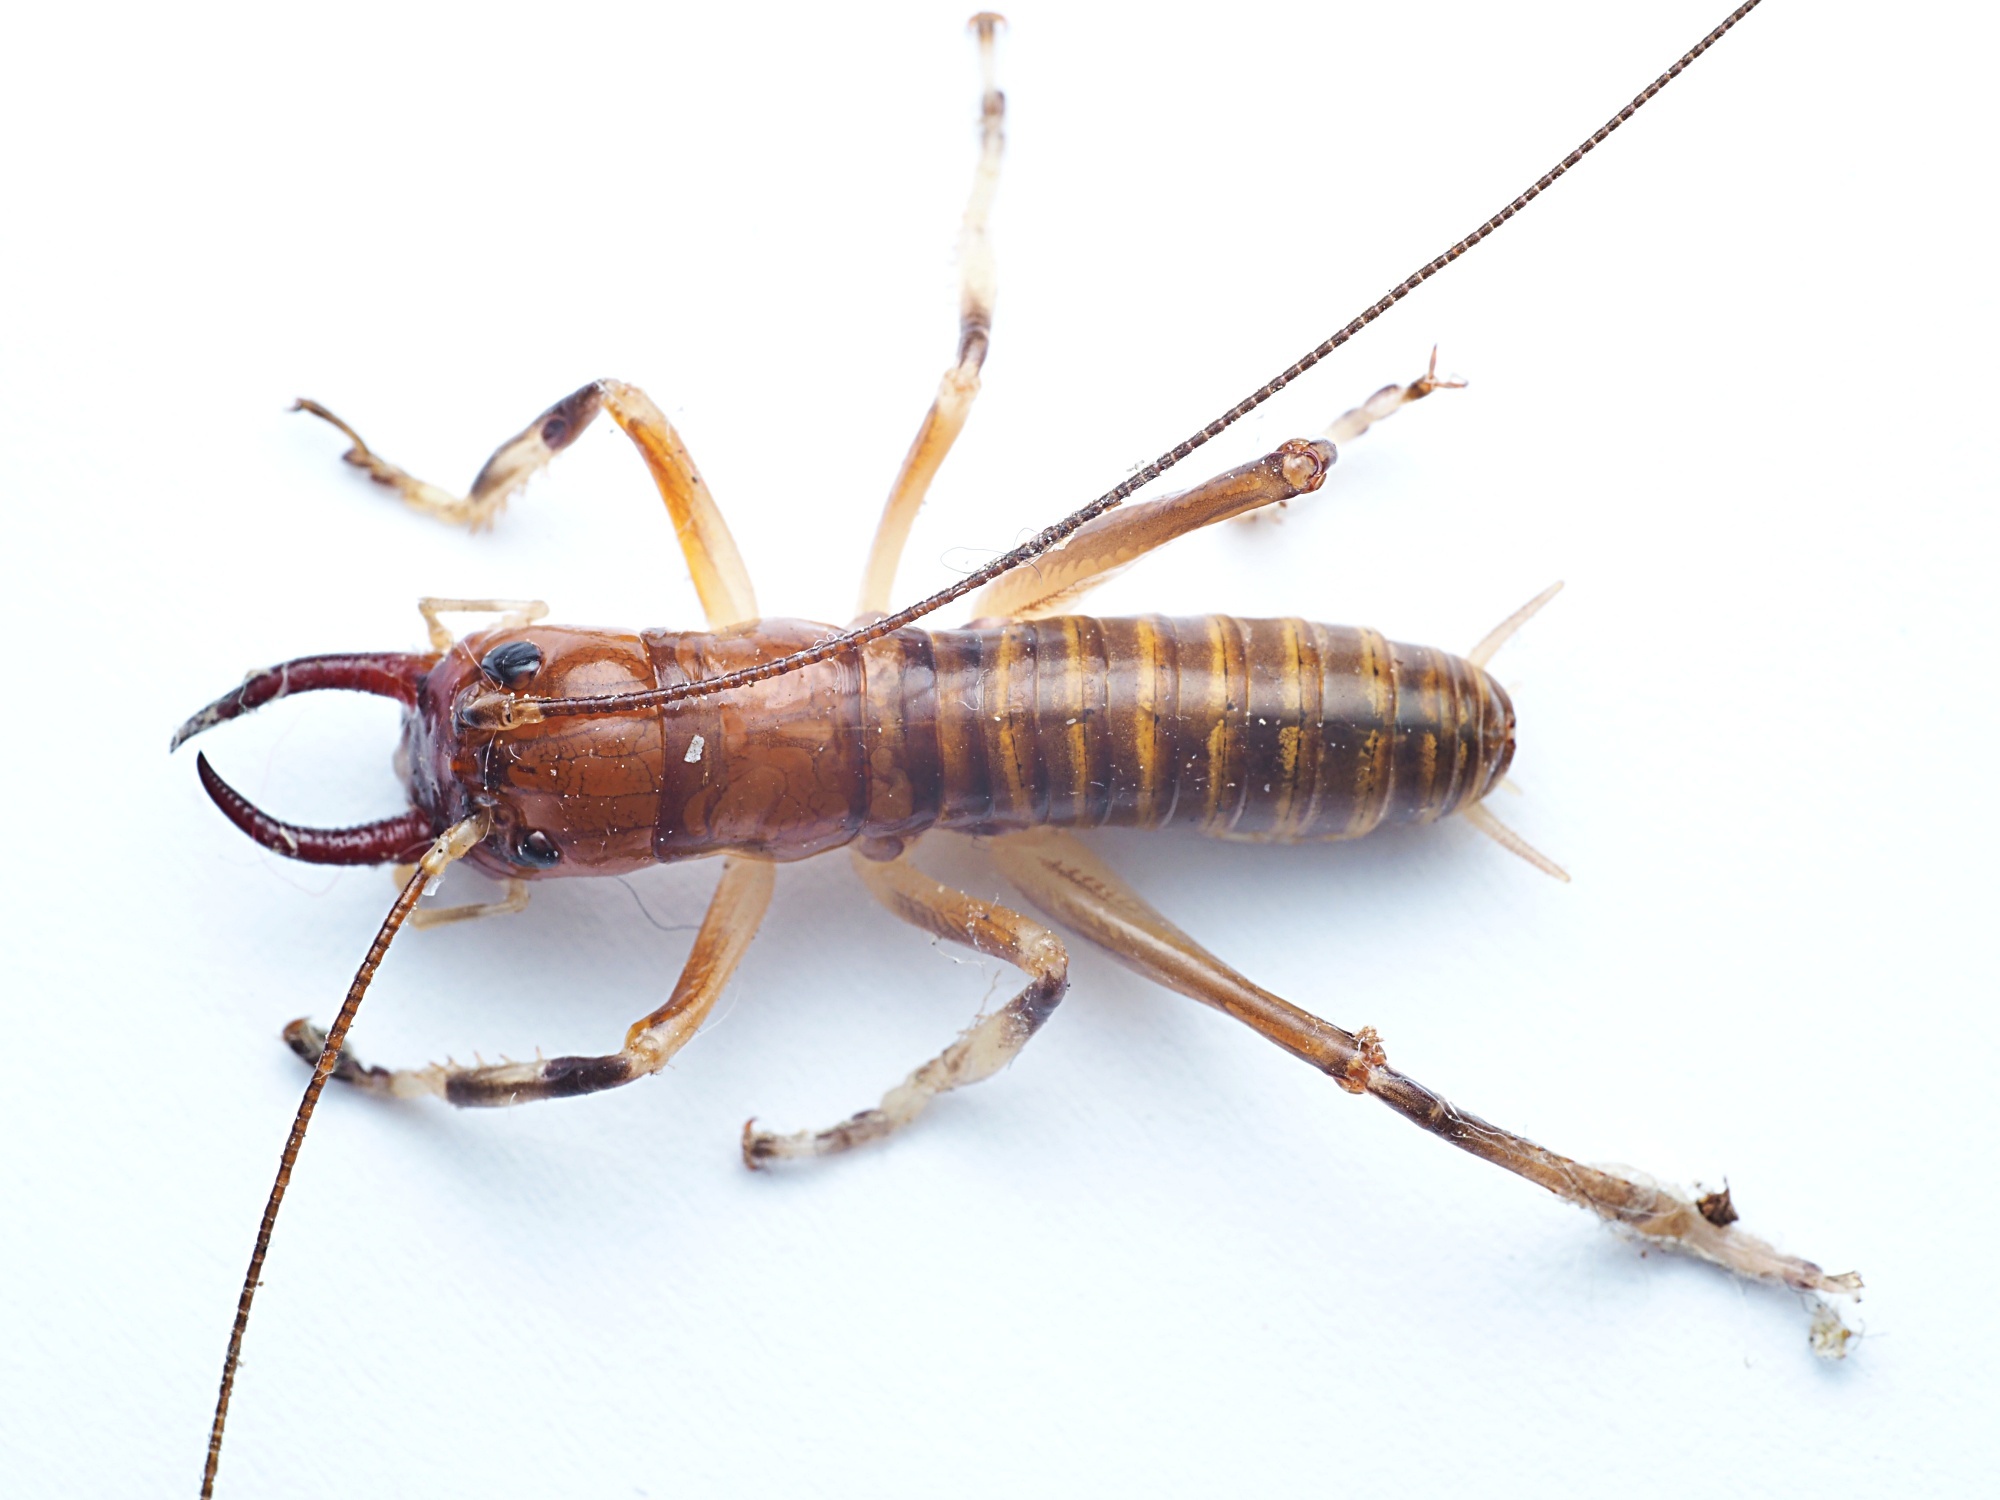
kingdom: Animalia
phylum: Arthropoda
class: Insecta
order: Orthoptera
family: Anostostomatidae
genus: Anisoura
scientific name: Anisoura nicobarica
